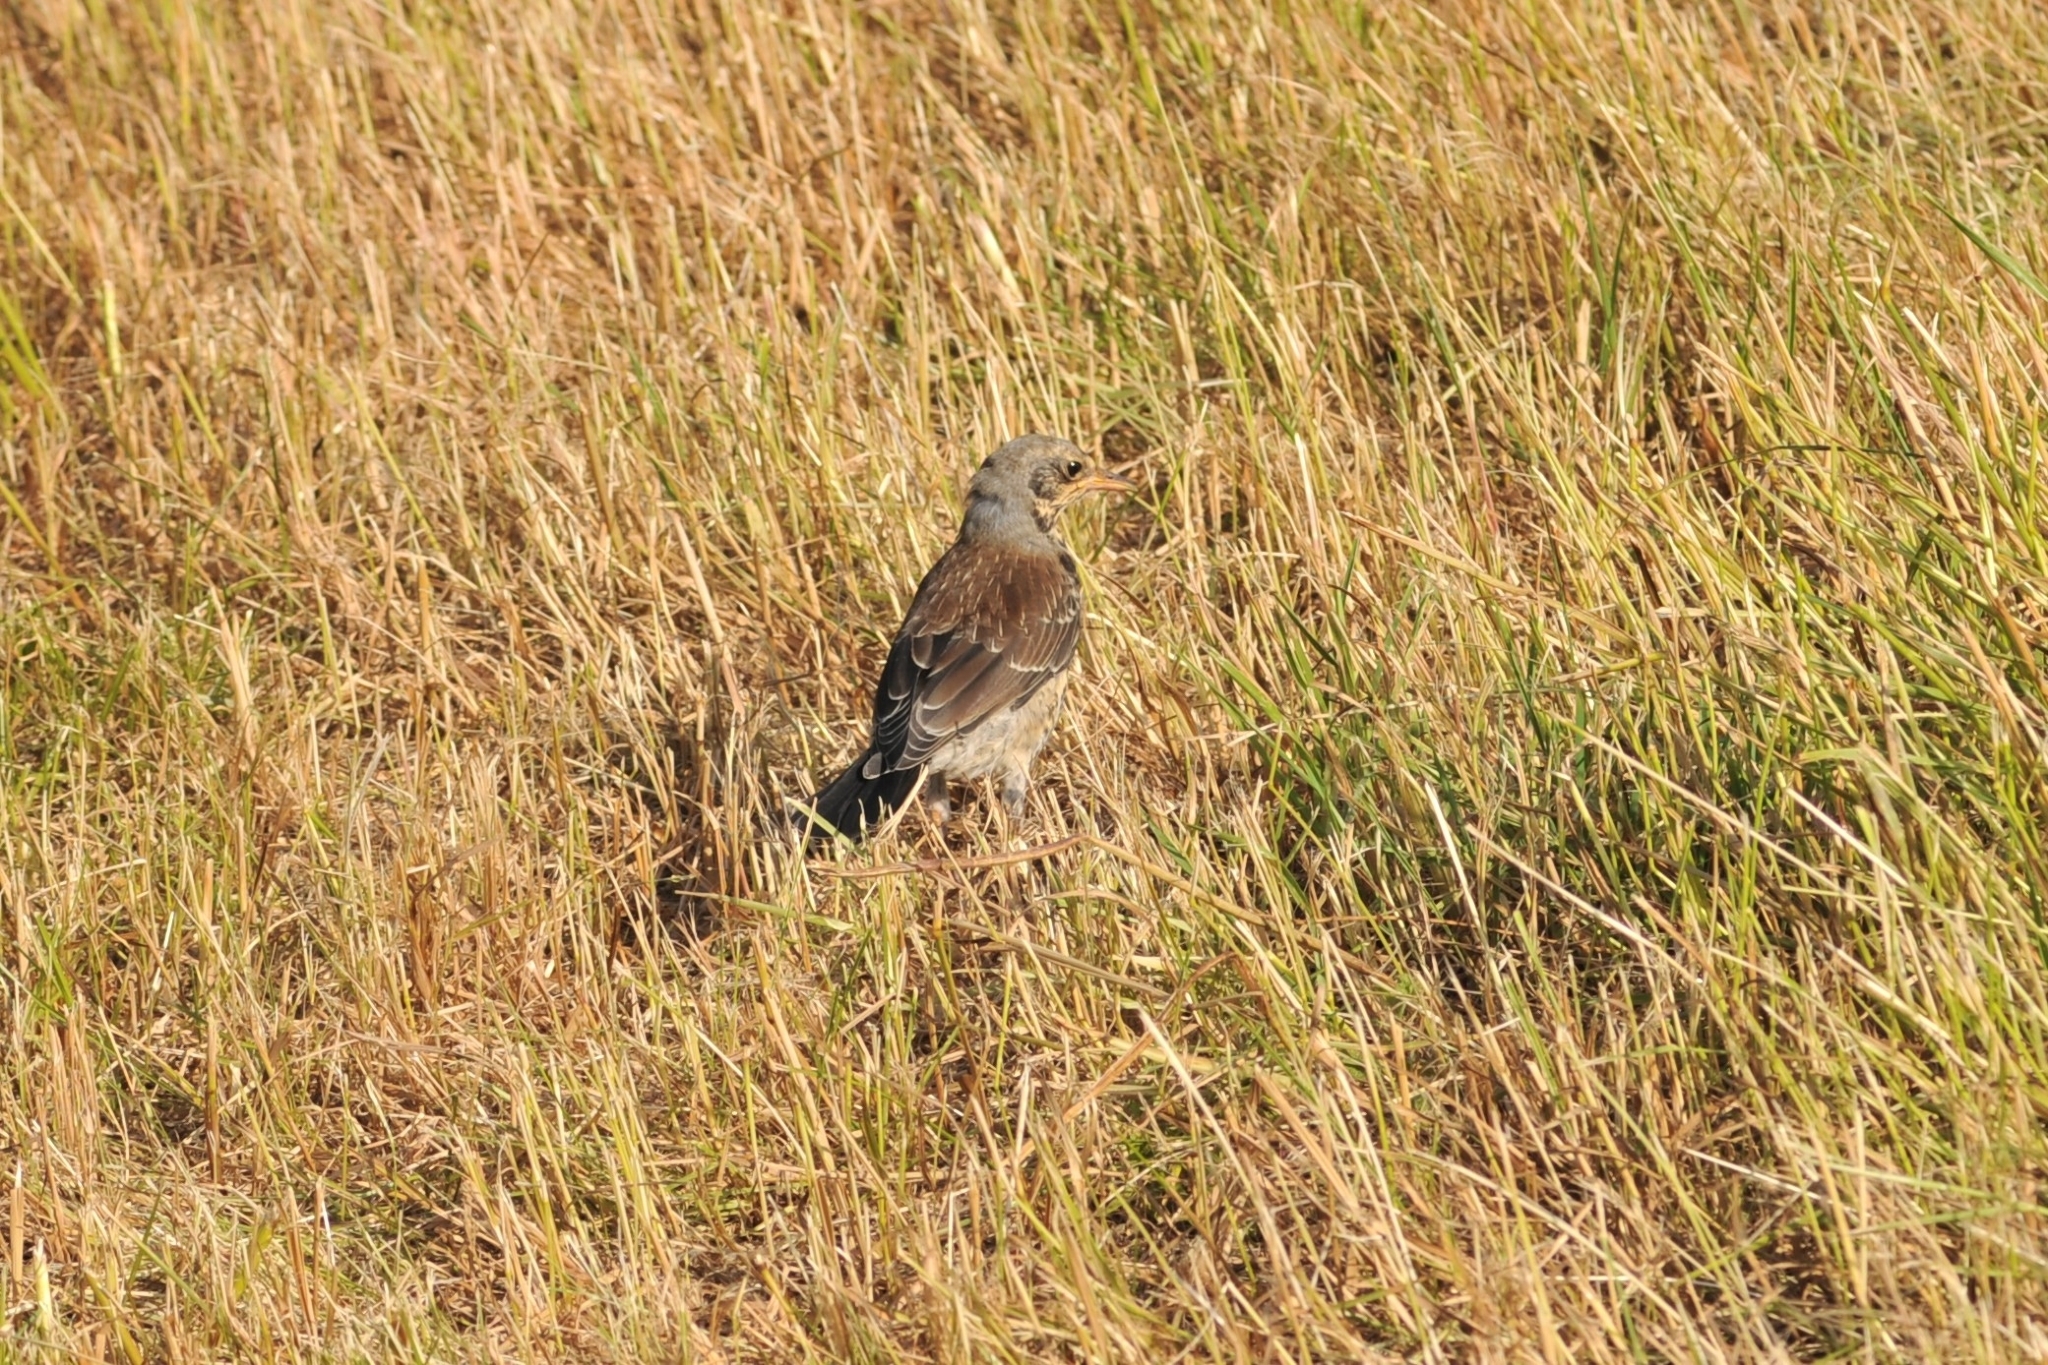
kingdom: Animalia
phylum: Chordata
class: Aves
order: Passeriformes
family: Turdidae
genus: Turdus
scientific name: Turdus pilaris
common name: Fieldfare
